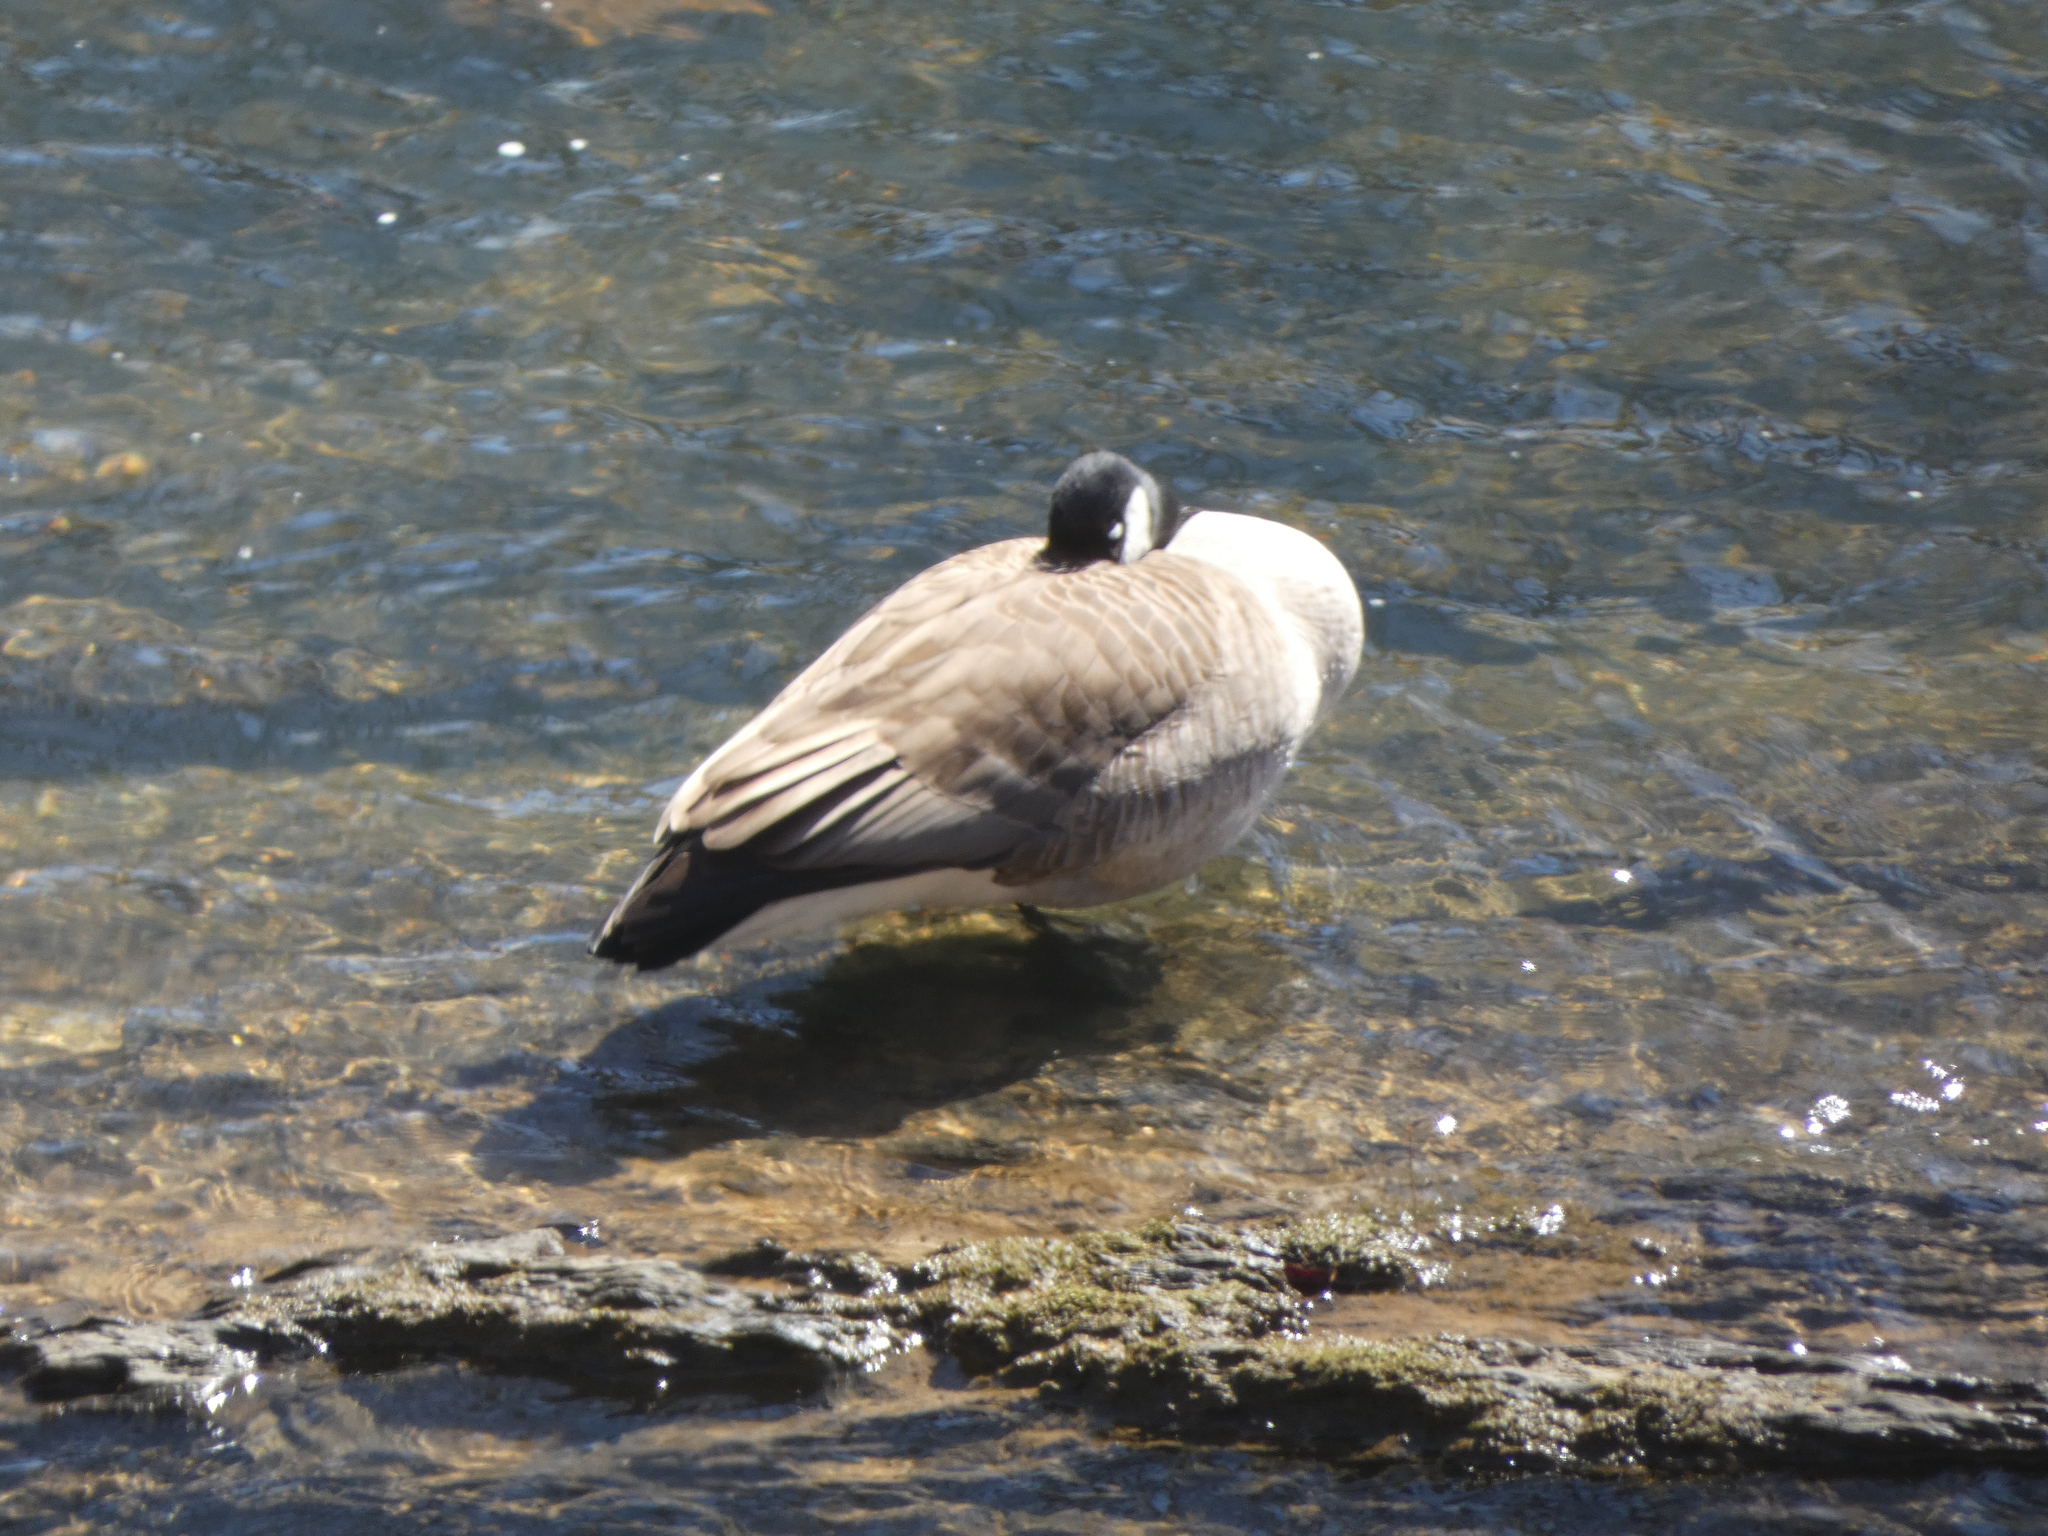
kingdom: Animalia
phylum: Chordata
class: Aves
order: Anseriformes
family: Anatidae
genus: Branta
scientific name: Branta canadensis
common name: Canada goose
